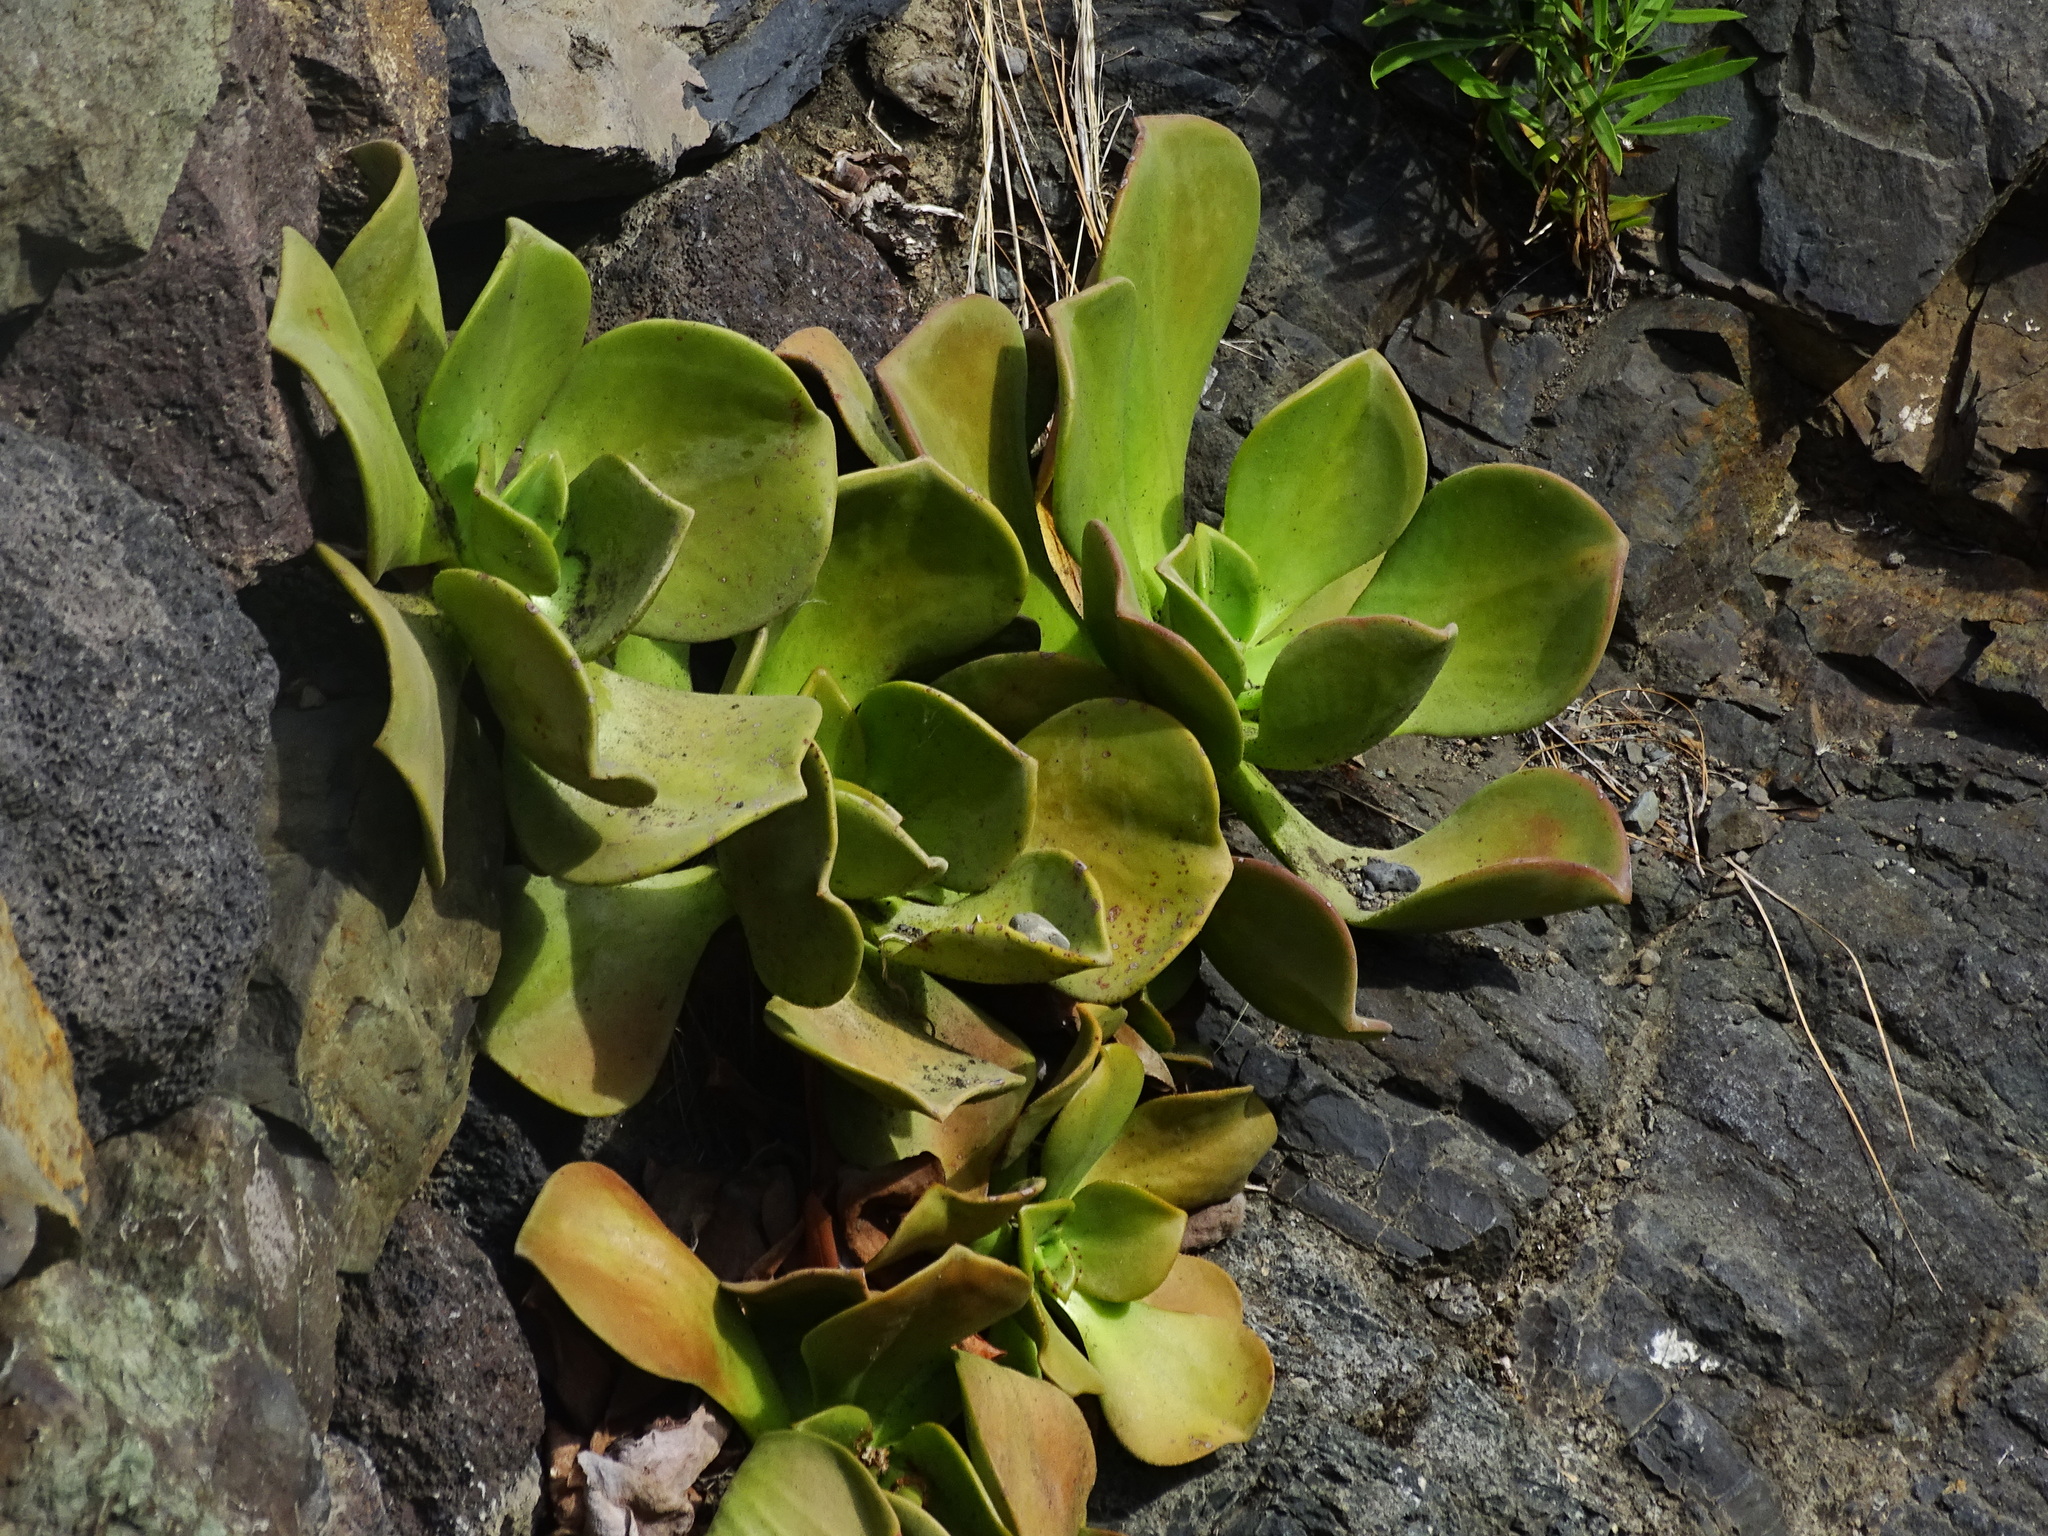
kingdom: Plantae
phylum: Tracheophyta
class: Magnoliopsida
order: Saxifragales
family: Crassulaceae
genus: Aeonium
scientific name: Aeonium nobile
